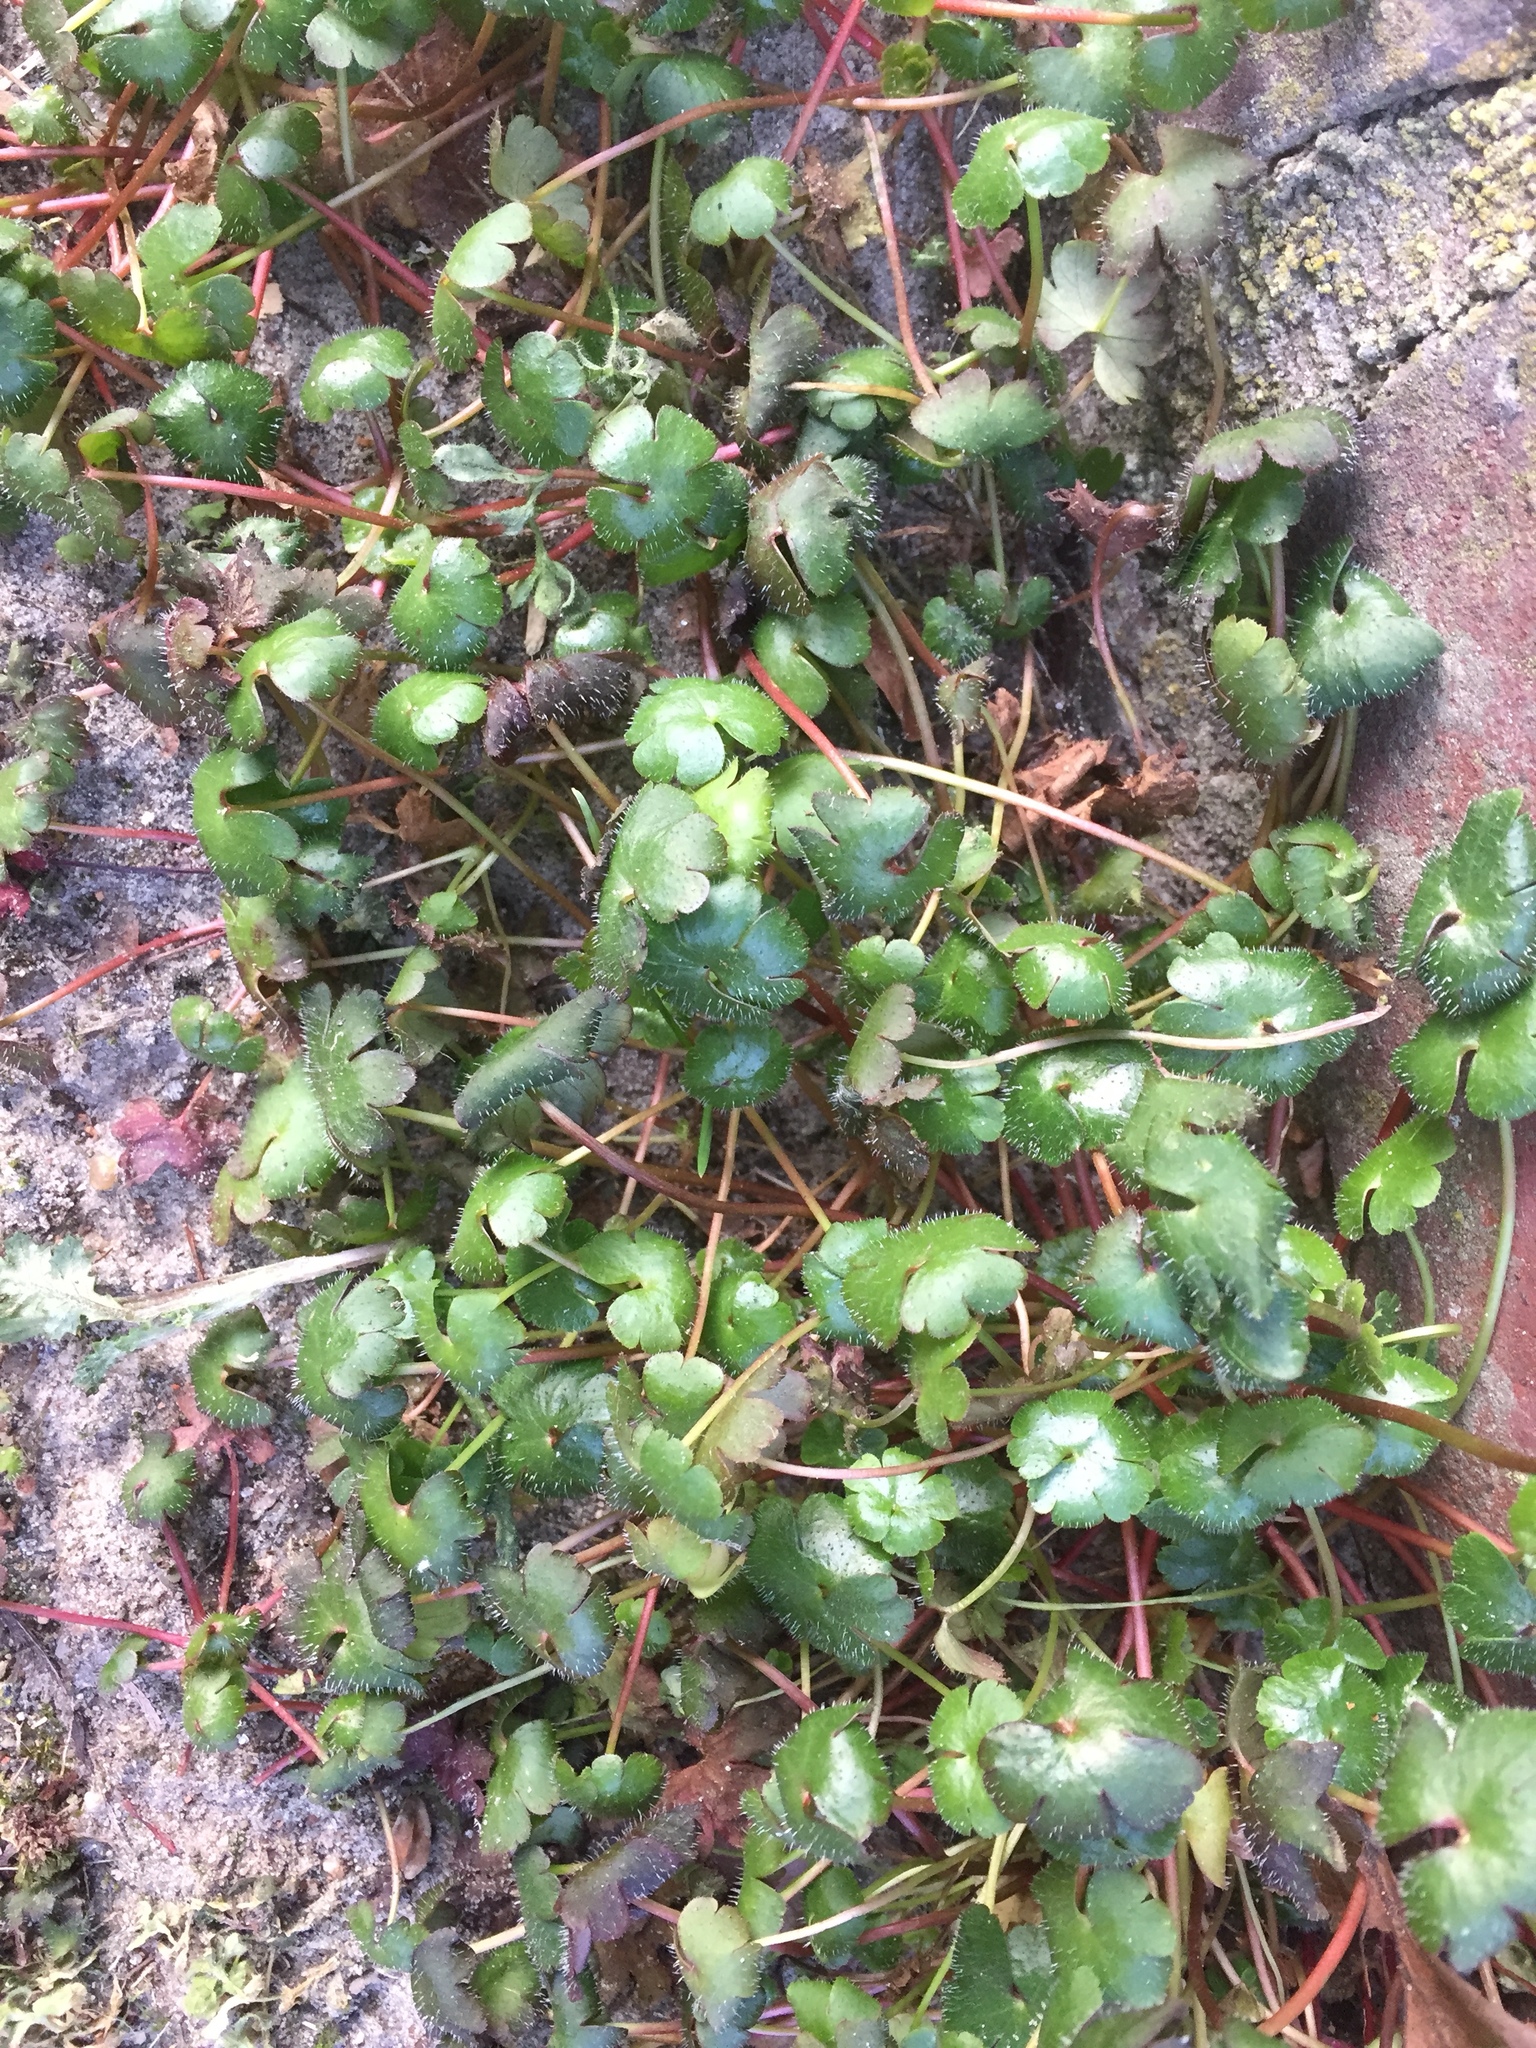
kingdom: Plantae
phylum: Tracheophyta
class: Magnoliopsida
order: Geraniales
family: Geraniaceae
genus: Geranium
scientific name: Geranium lucidum
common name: Shining crane's-bill
